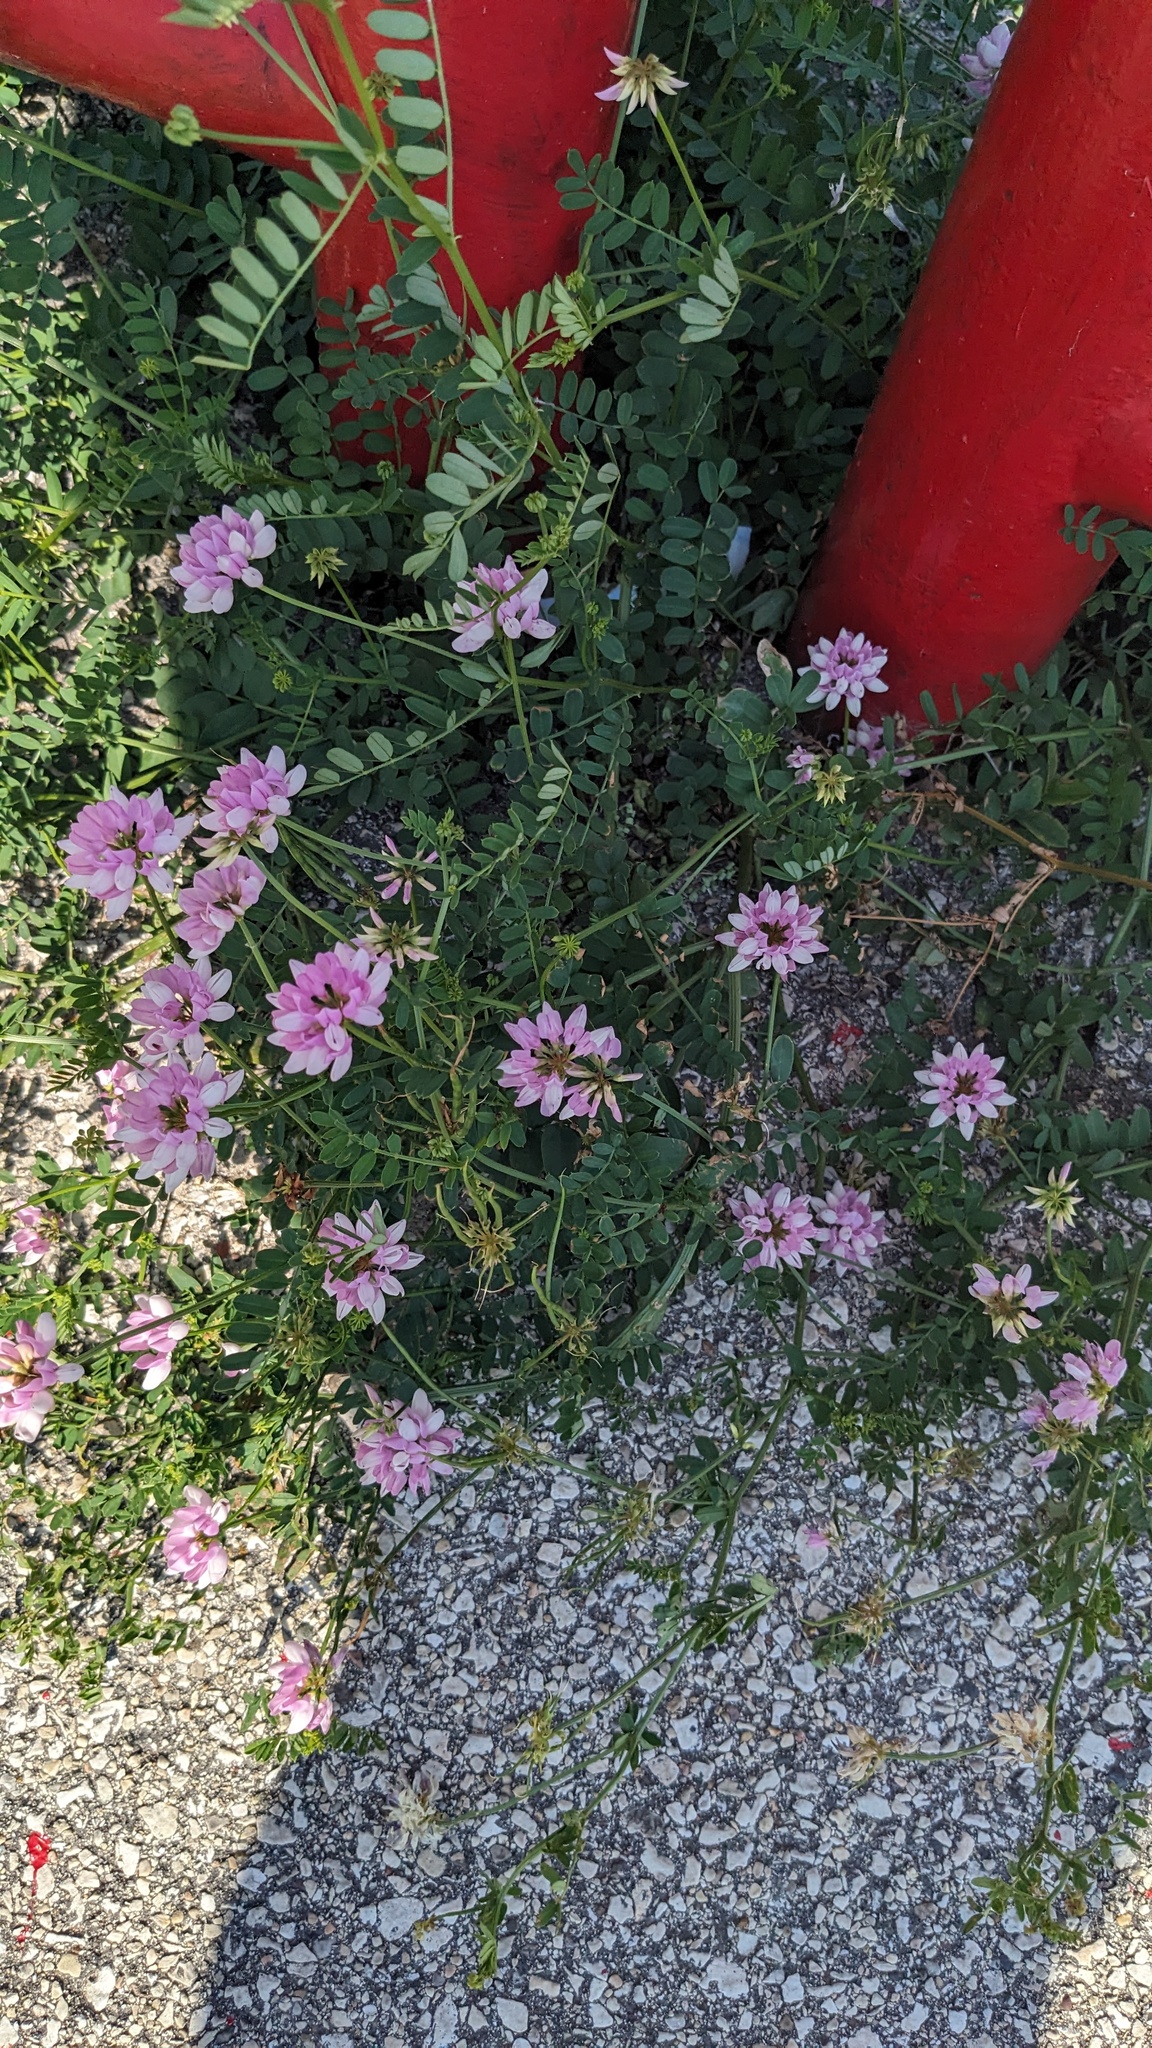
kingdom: Plantae
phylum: Tracheophyta
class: Magnoliopsida
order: Fabales
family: Fabaceae
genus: Coronilla
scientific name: Coronilla varia
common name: Crownvetch
